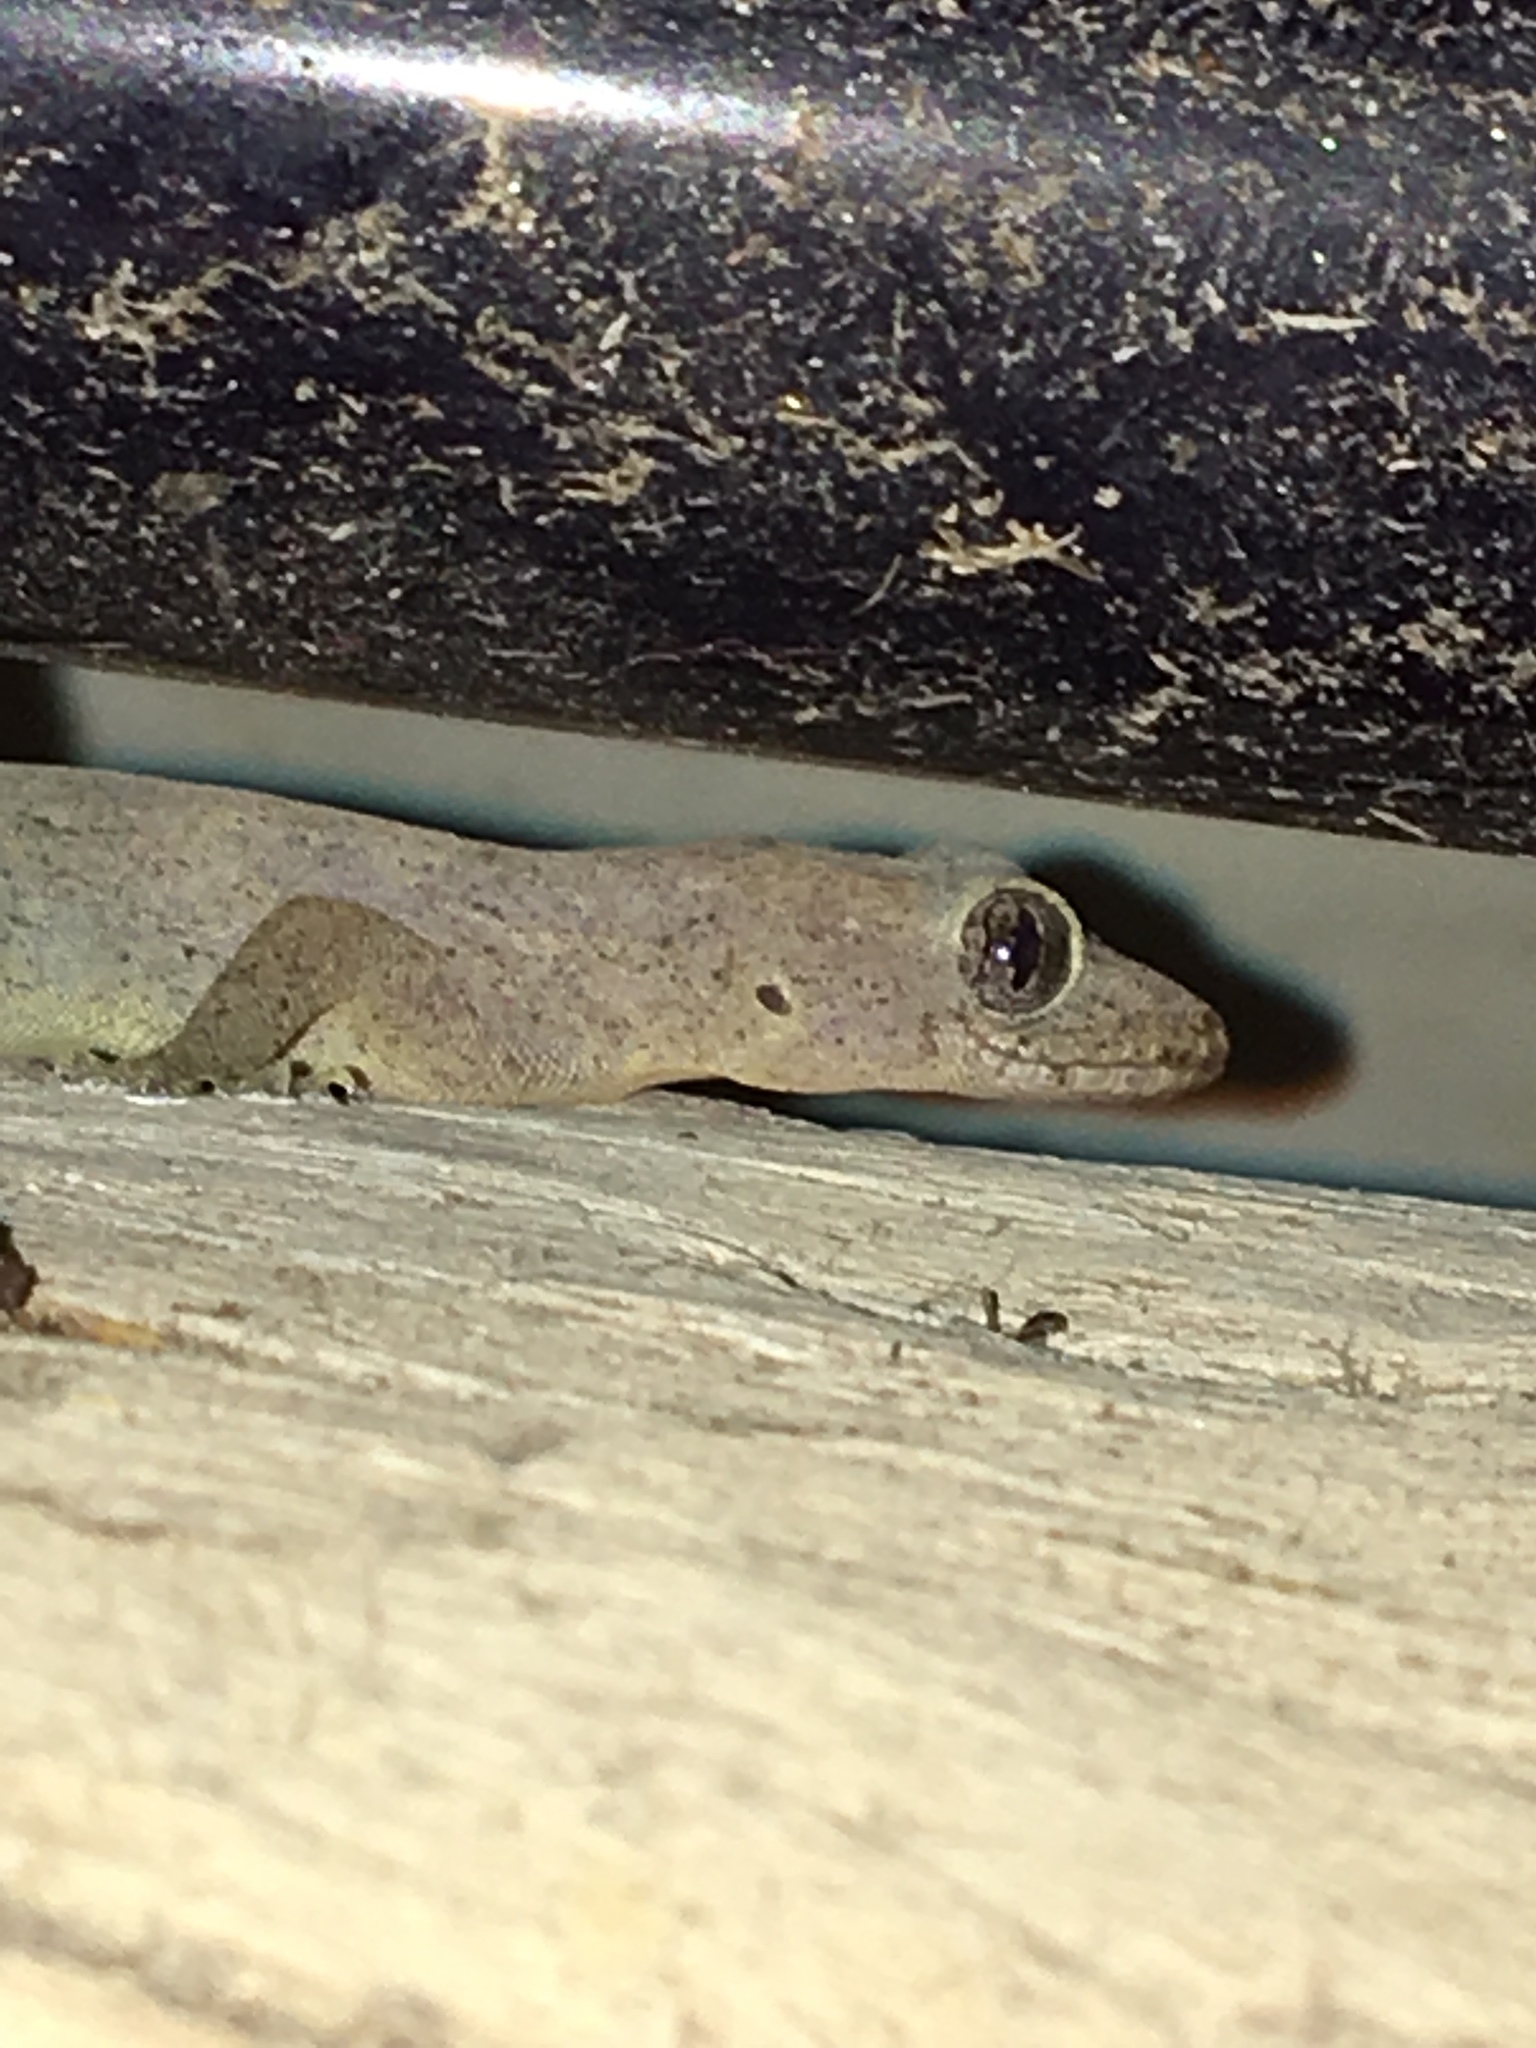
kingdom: Animalia
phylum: Chordata
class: Squamata
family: Gekkonidae
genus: Hemidactylus
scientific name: Hemidactylus frenatus
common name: Common house gecko
